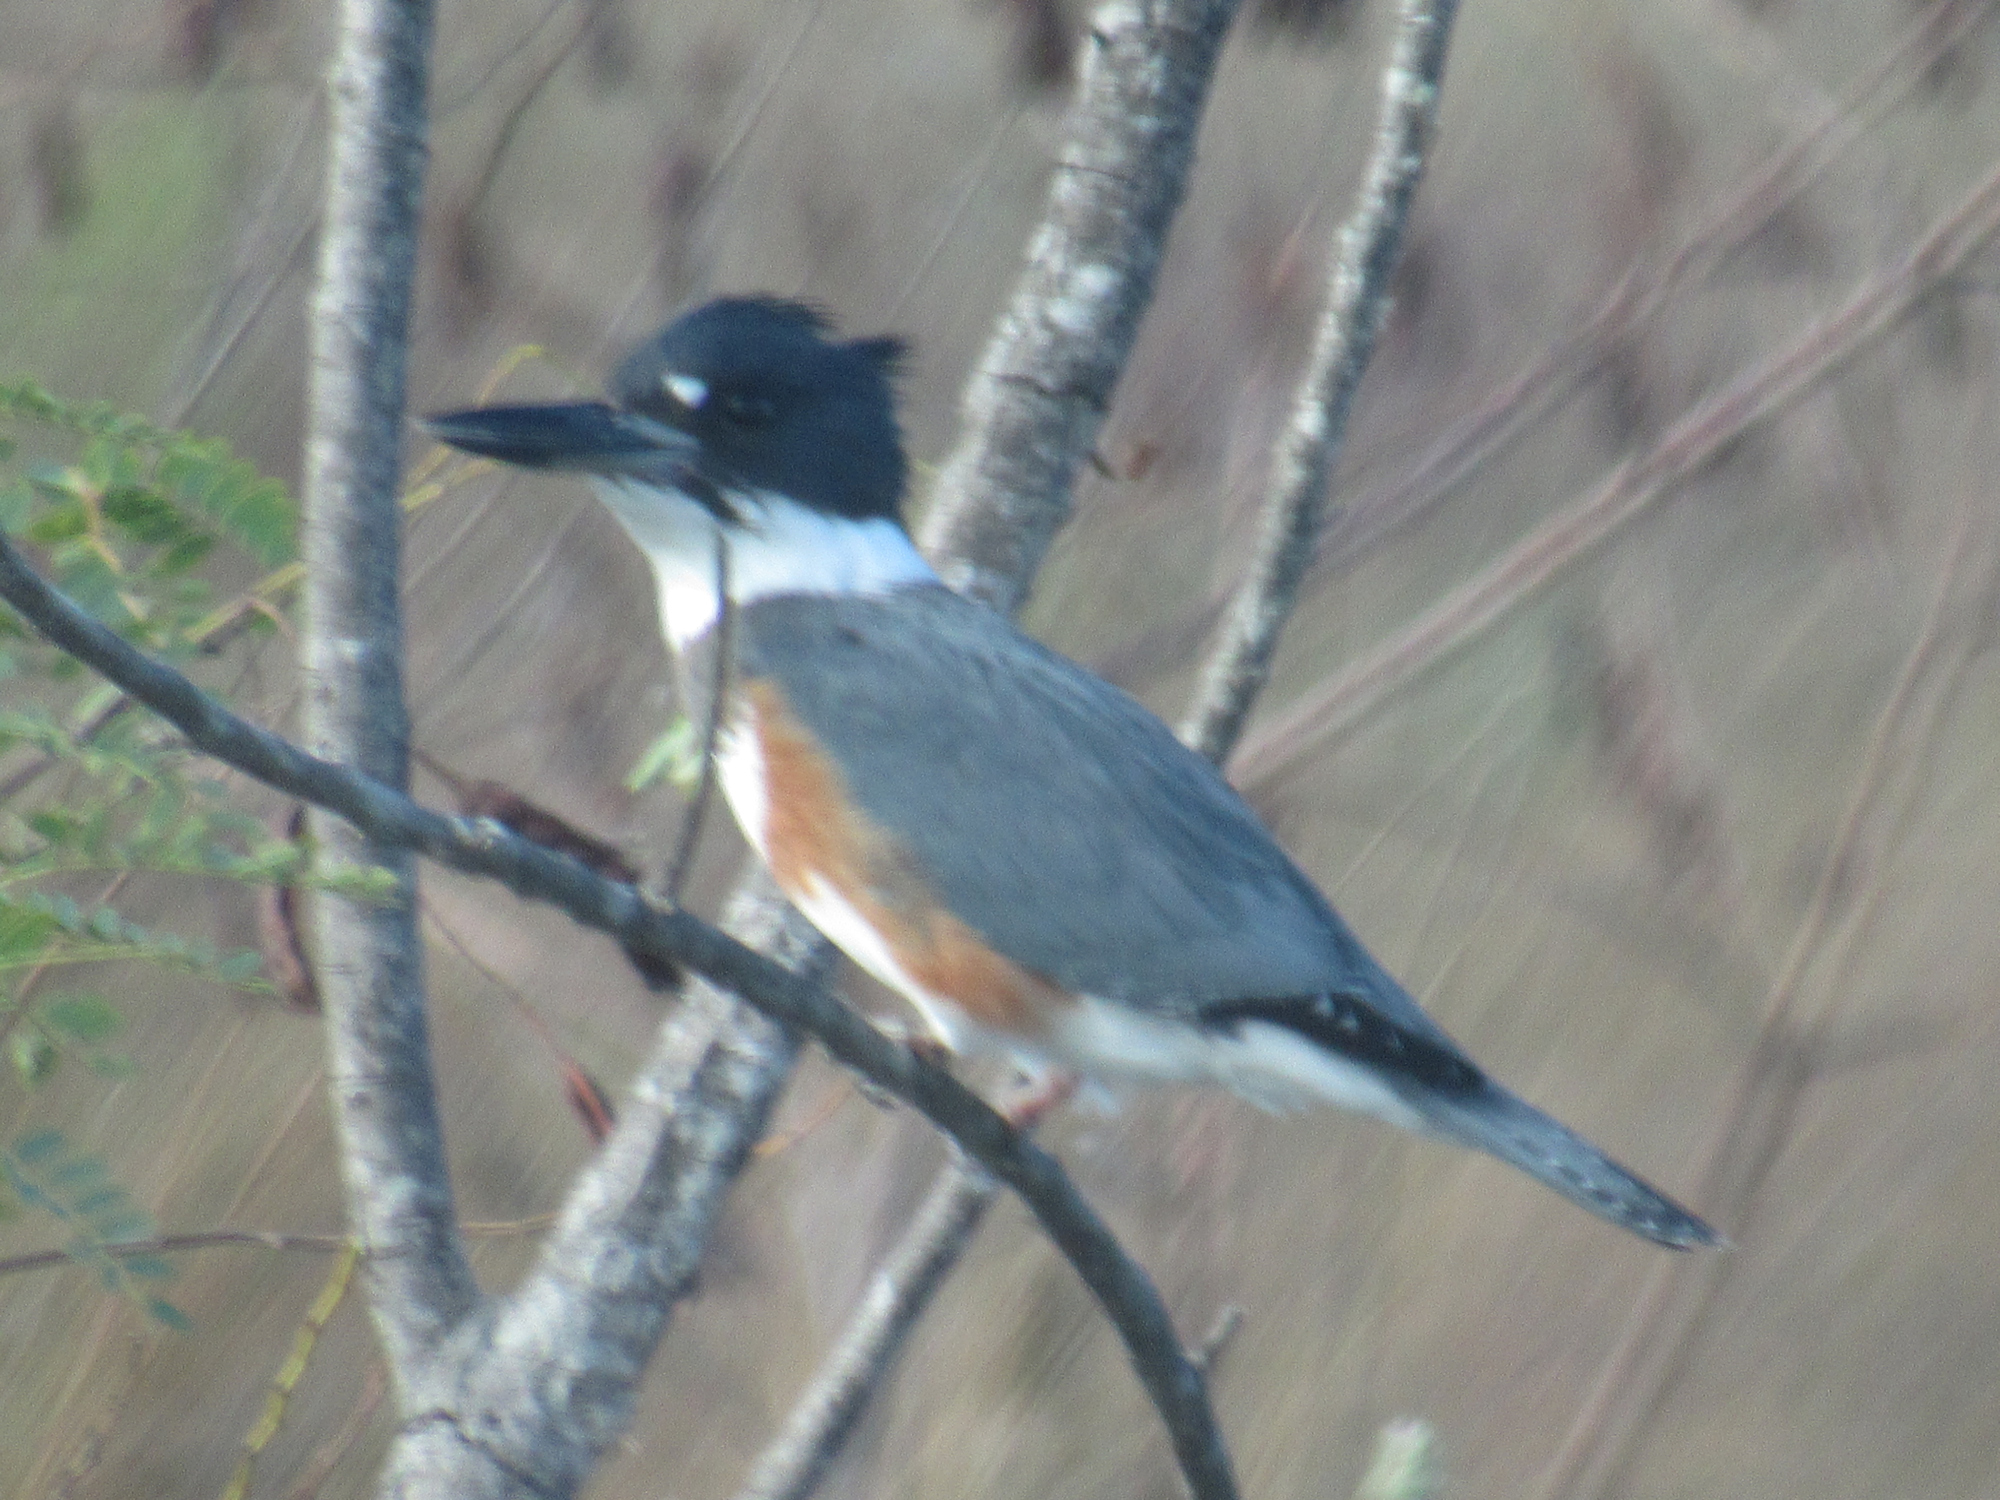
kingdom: Animalia
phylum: Chordata
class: Aves
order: Coraciiformes
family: Alcedinidae
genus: Megaceryle
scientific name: Megaceryle alcyon
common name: Belted kingfisher
